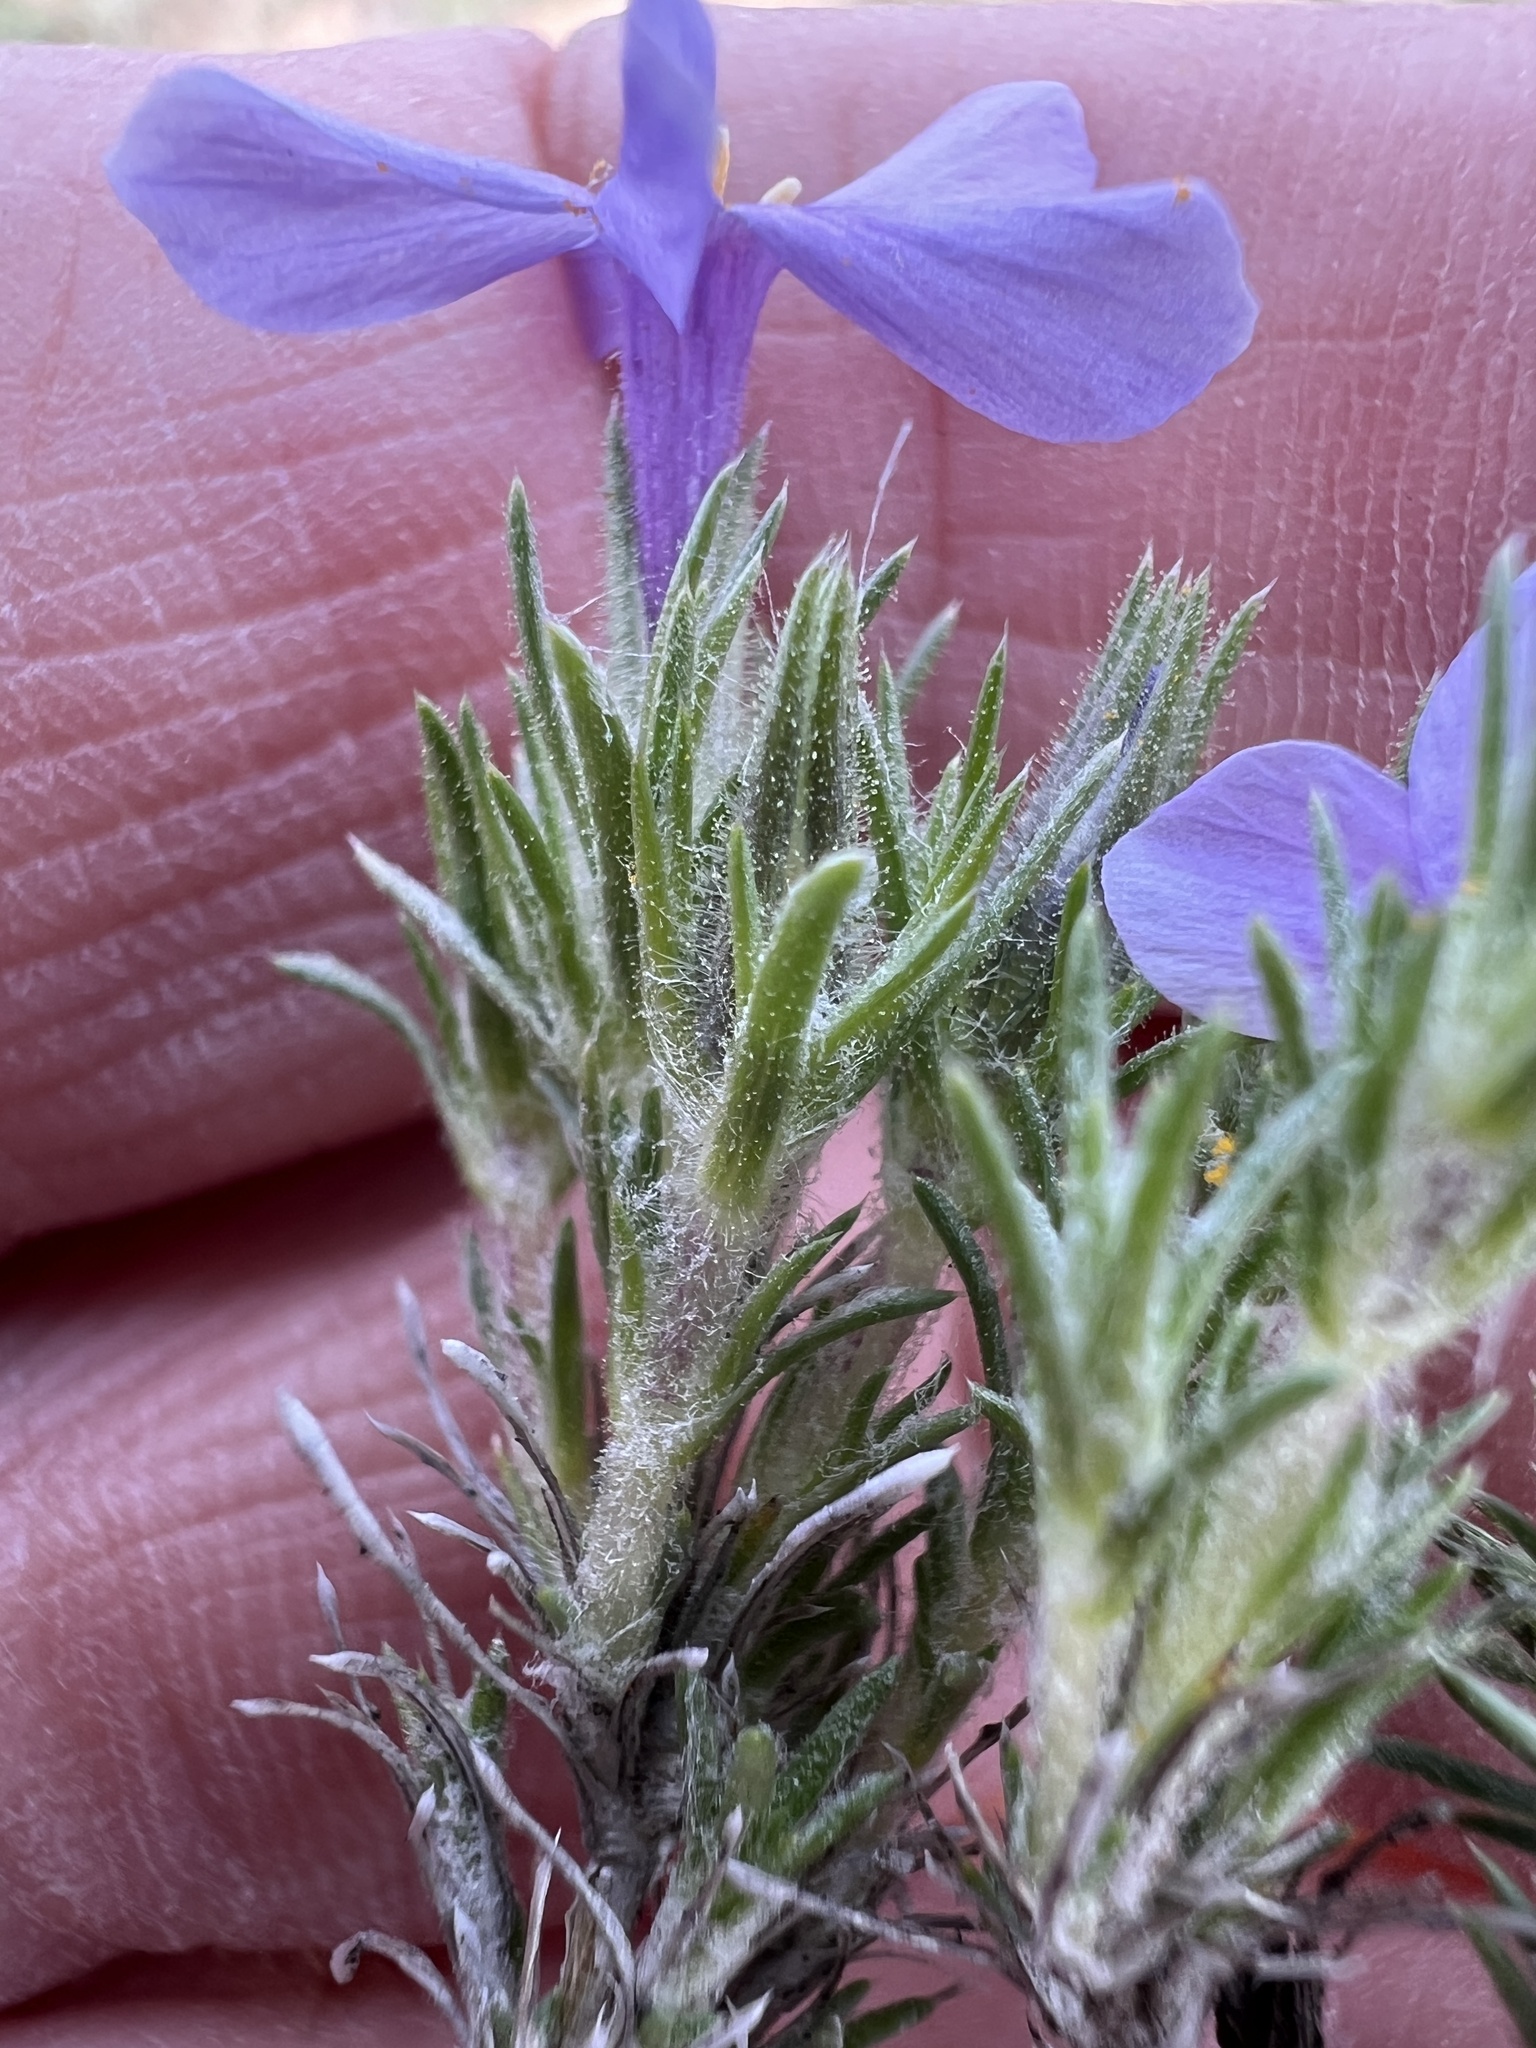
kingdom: Plantae
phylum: Tracheophyta
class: Magnoliopsida
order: Ericales
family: Polemoniaceae
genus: Phlox
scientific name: Phlox douglasii
